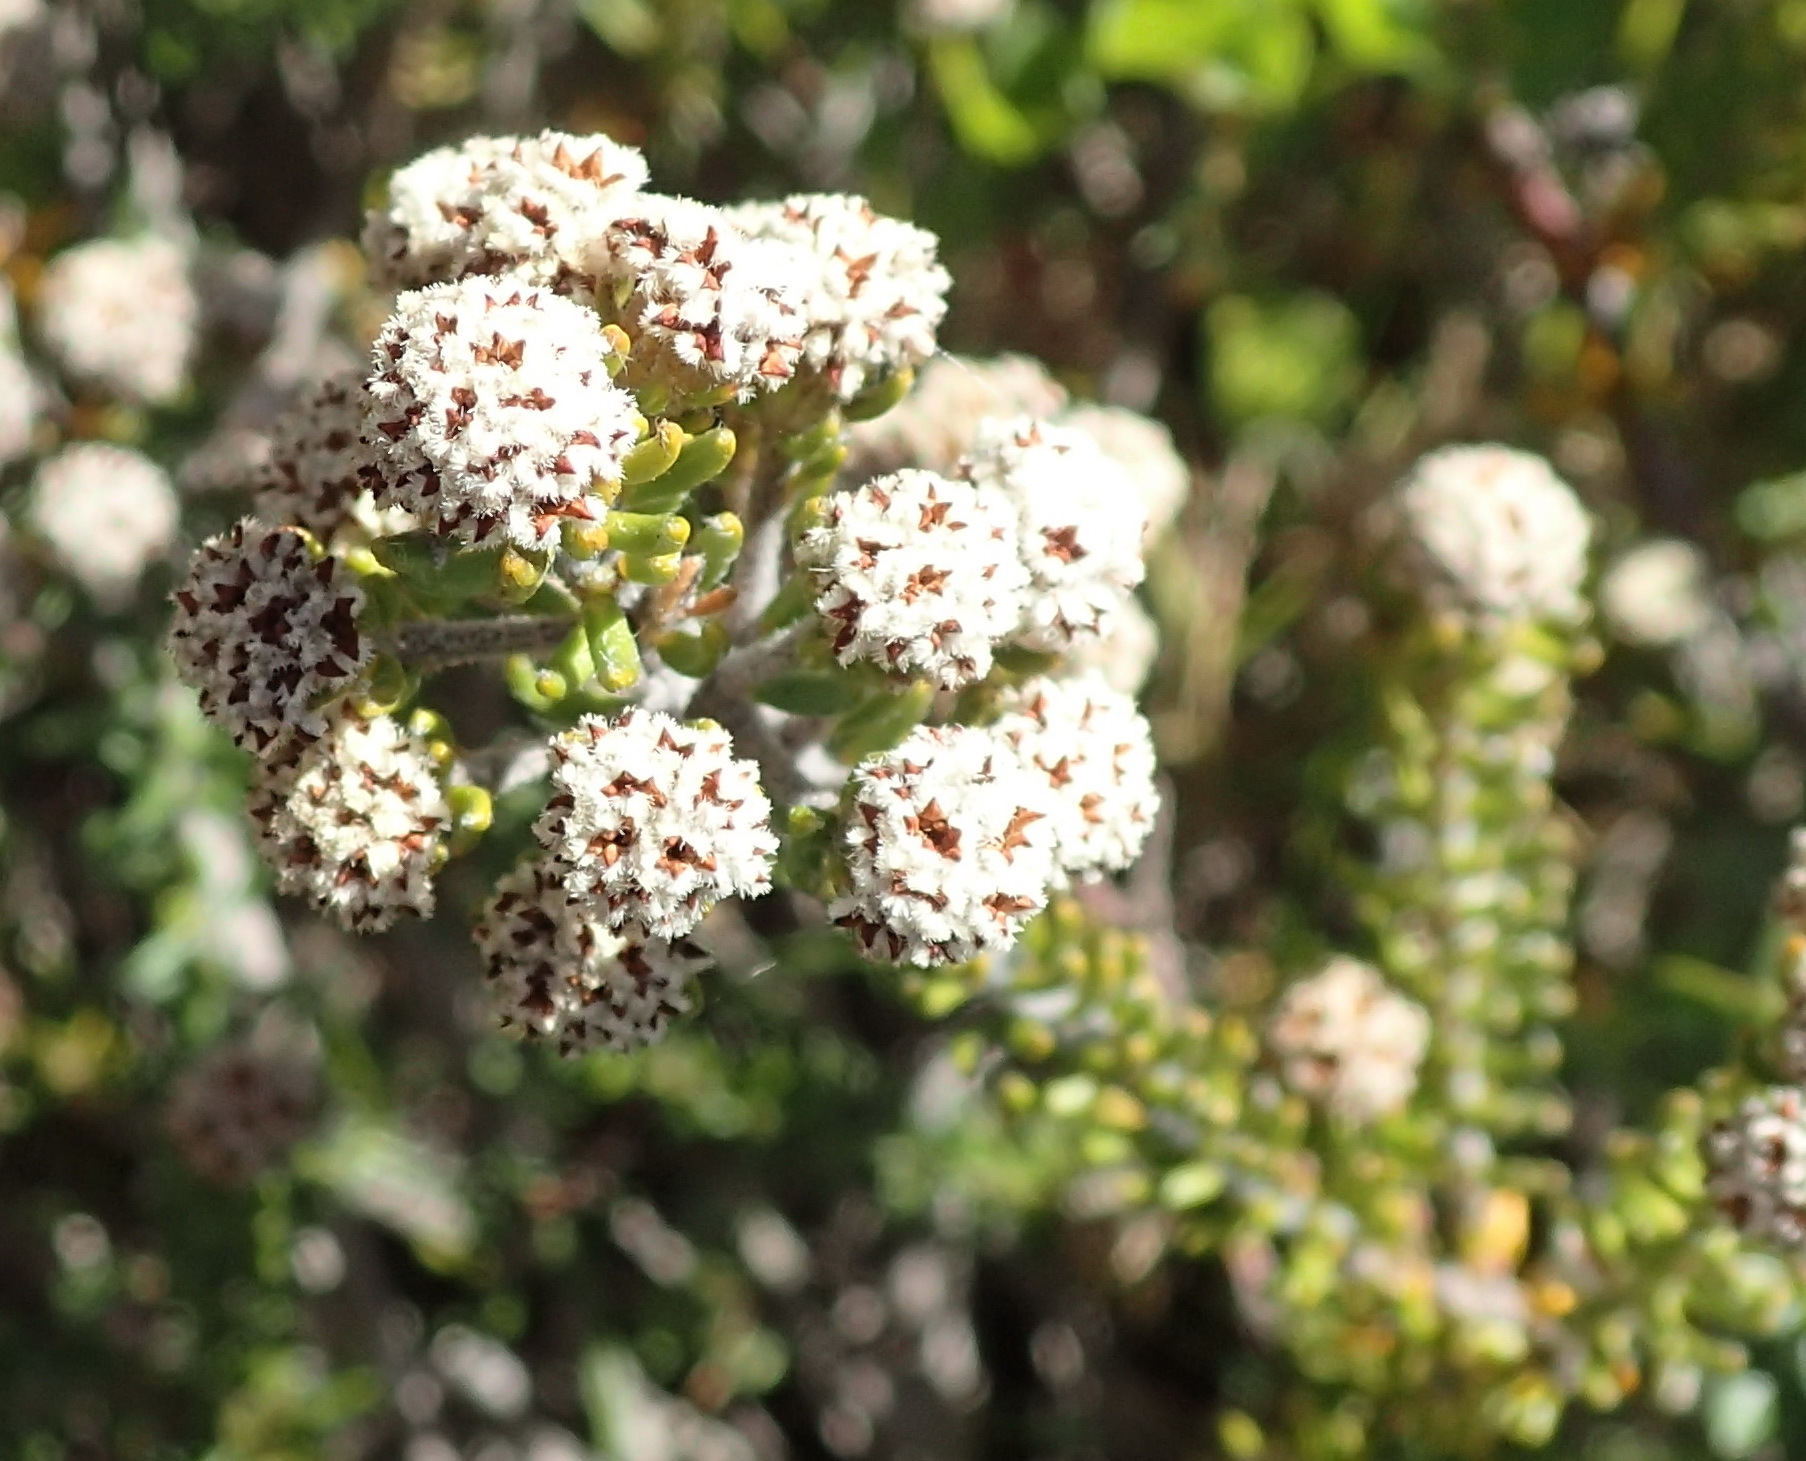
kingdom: Plantae
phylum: Tracheophyta
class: Magnoliopsida
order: Rosales
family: Rhamnaceae
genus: Phylica
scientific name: Phylica nigrita
